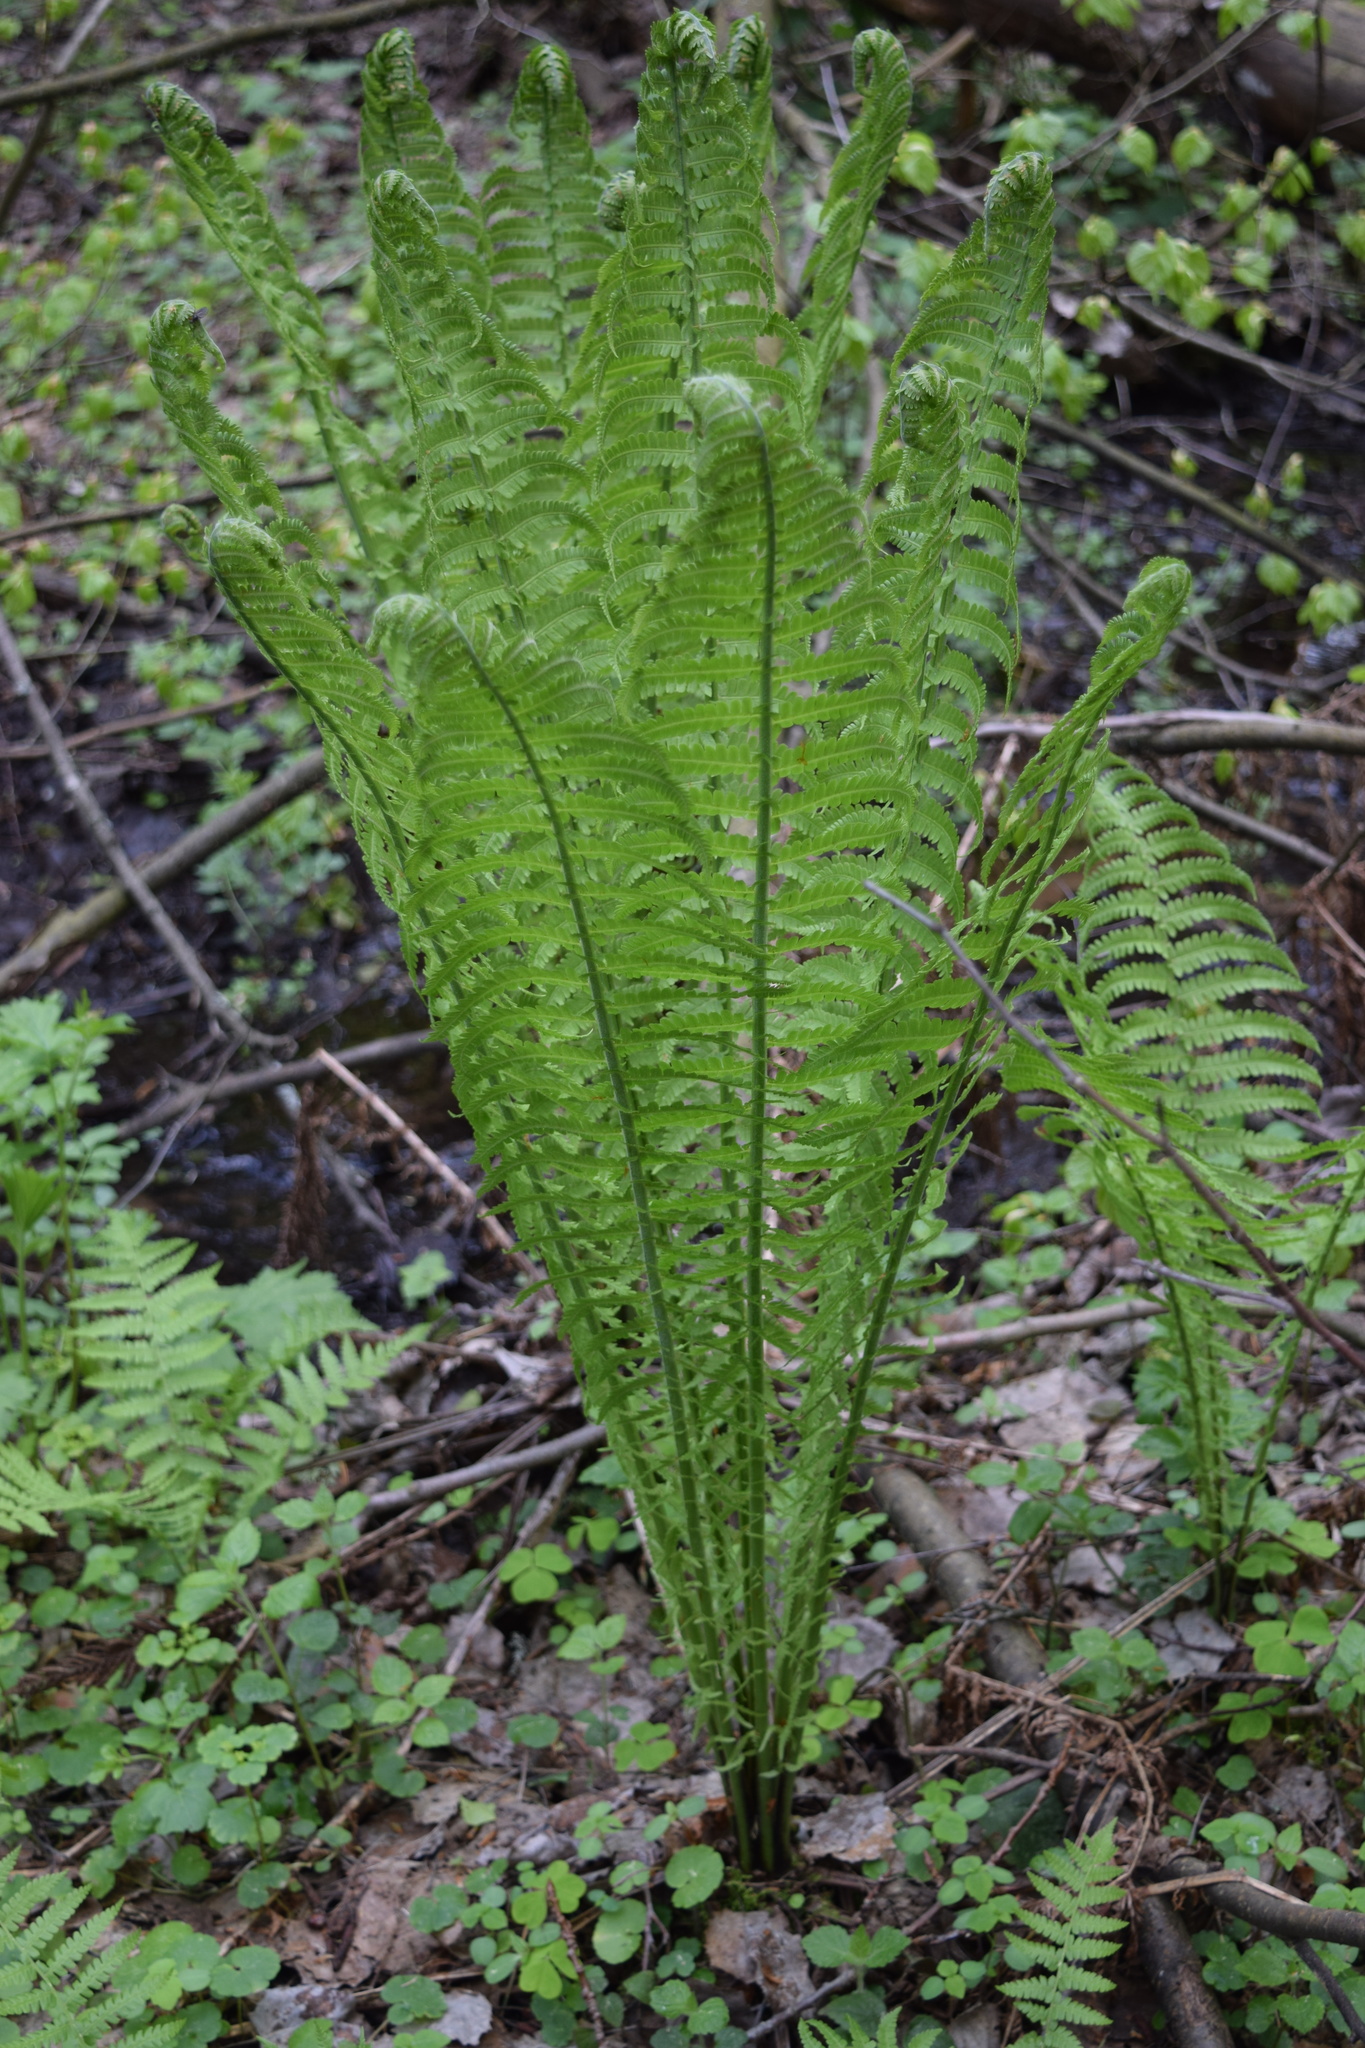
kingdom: Plantae
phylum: Tracheophyta
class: Polypodiopsida
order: Polypodiales
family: Onocleaceae
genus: Matteuccia
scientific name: Matteuccia struthiopteris
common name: Ostrich fern
